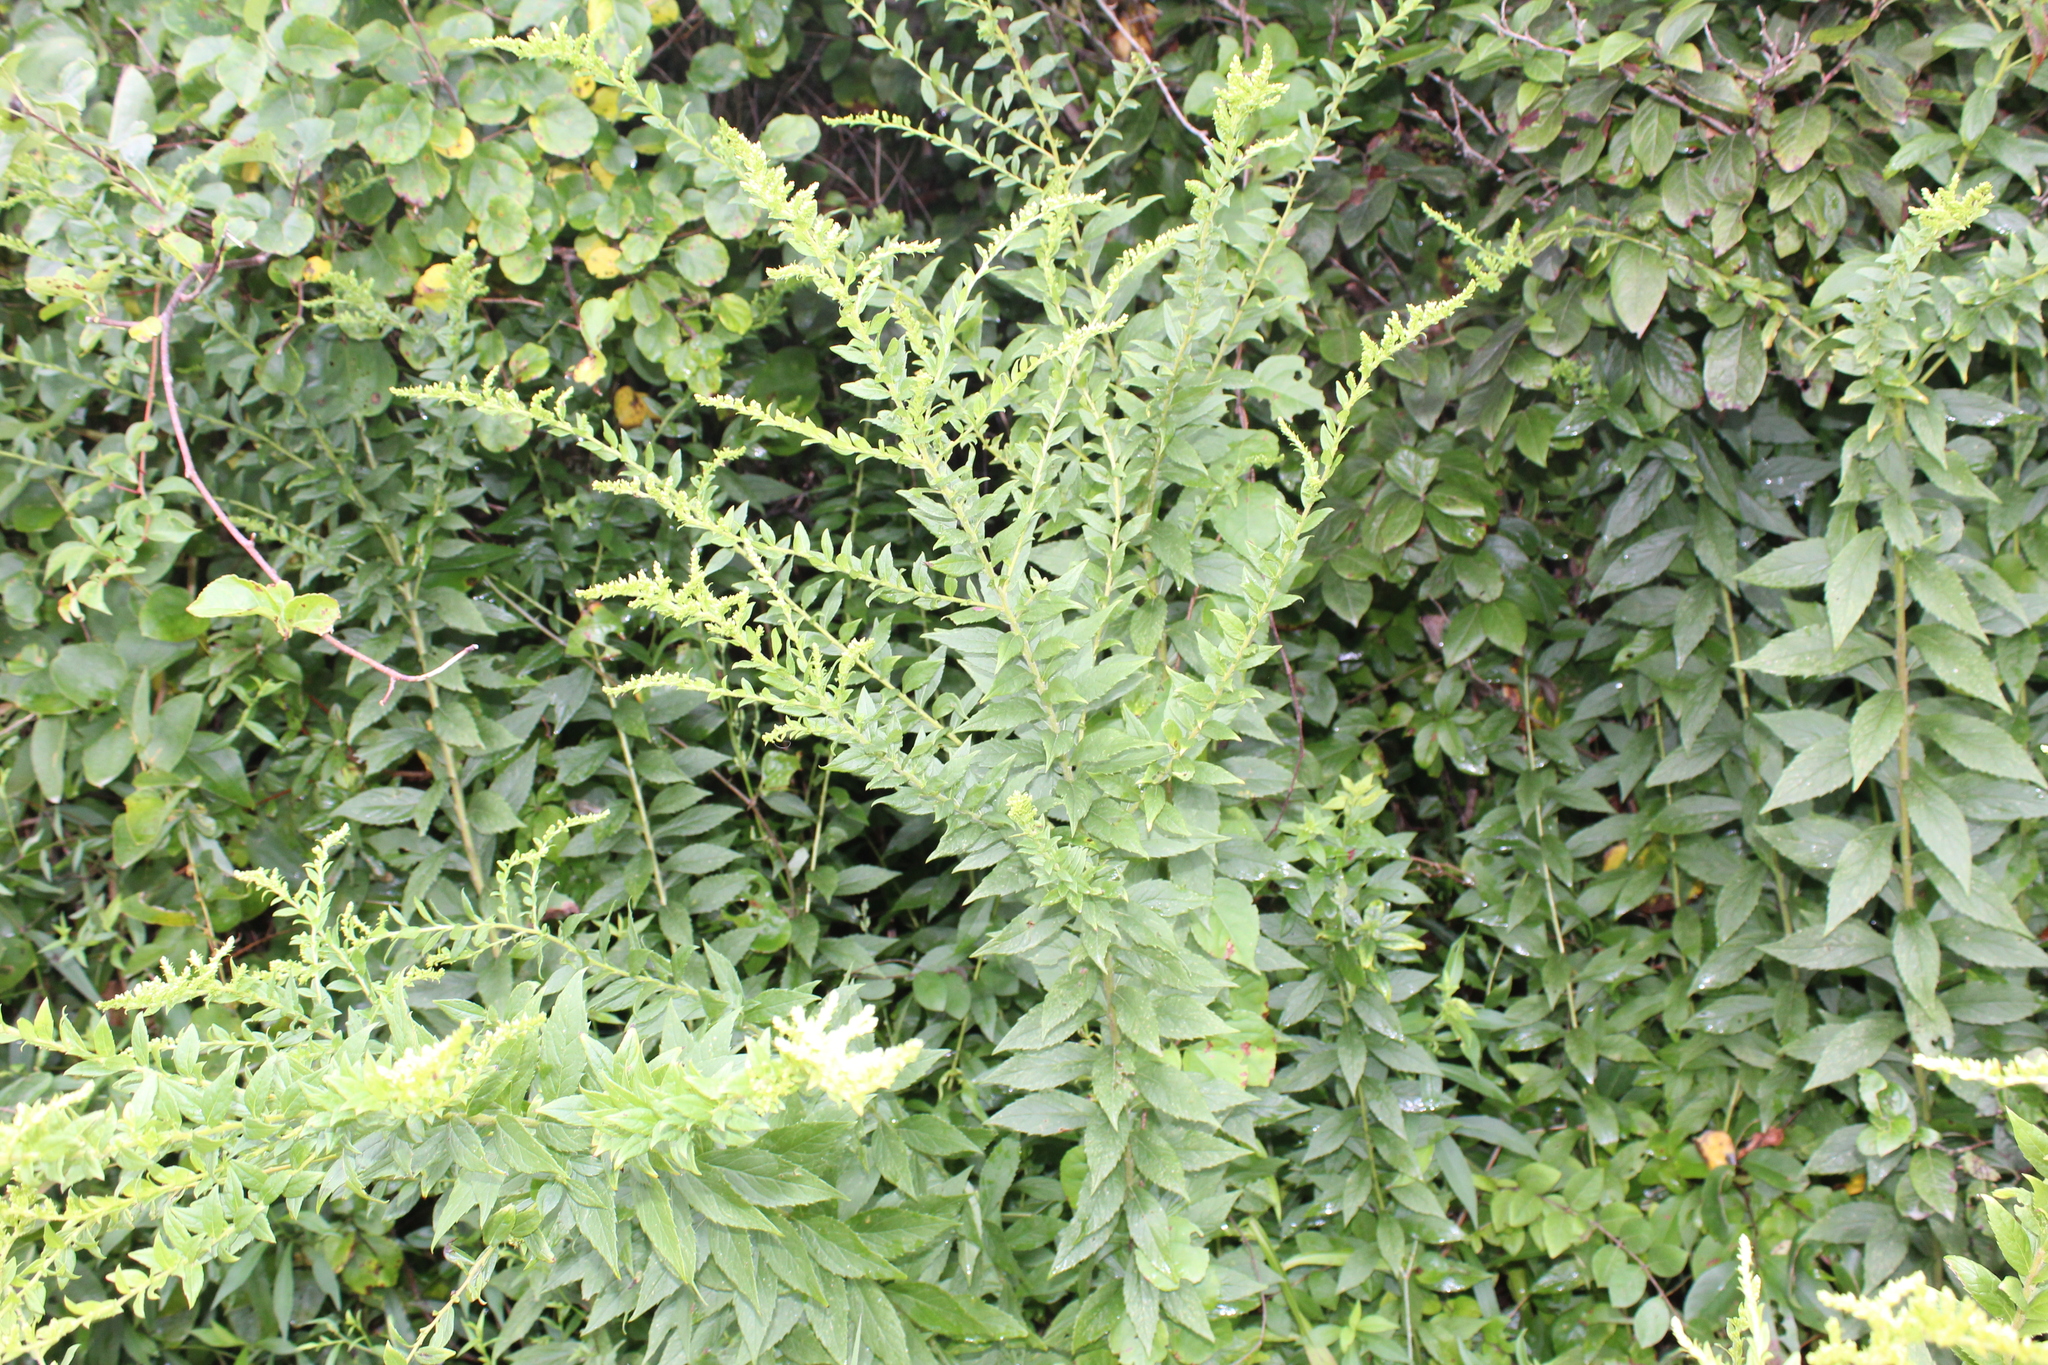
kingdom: Plantae
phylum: Tracheophyta
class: Magnoliopsida
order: Asterales
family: Asteraceae
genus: Solidago
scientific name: Solidago rugosa
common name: Rough-stemmed goldenrod
